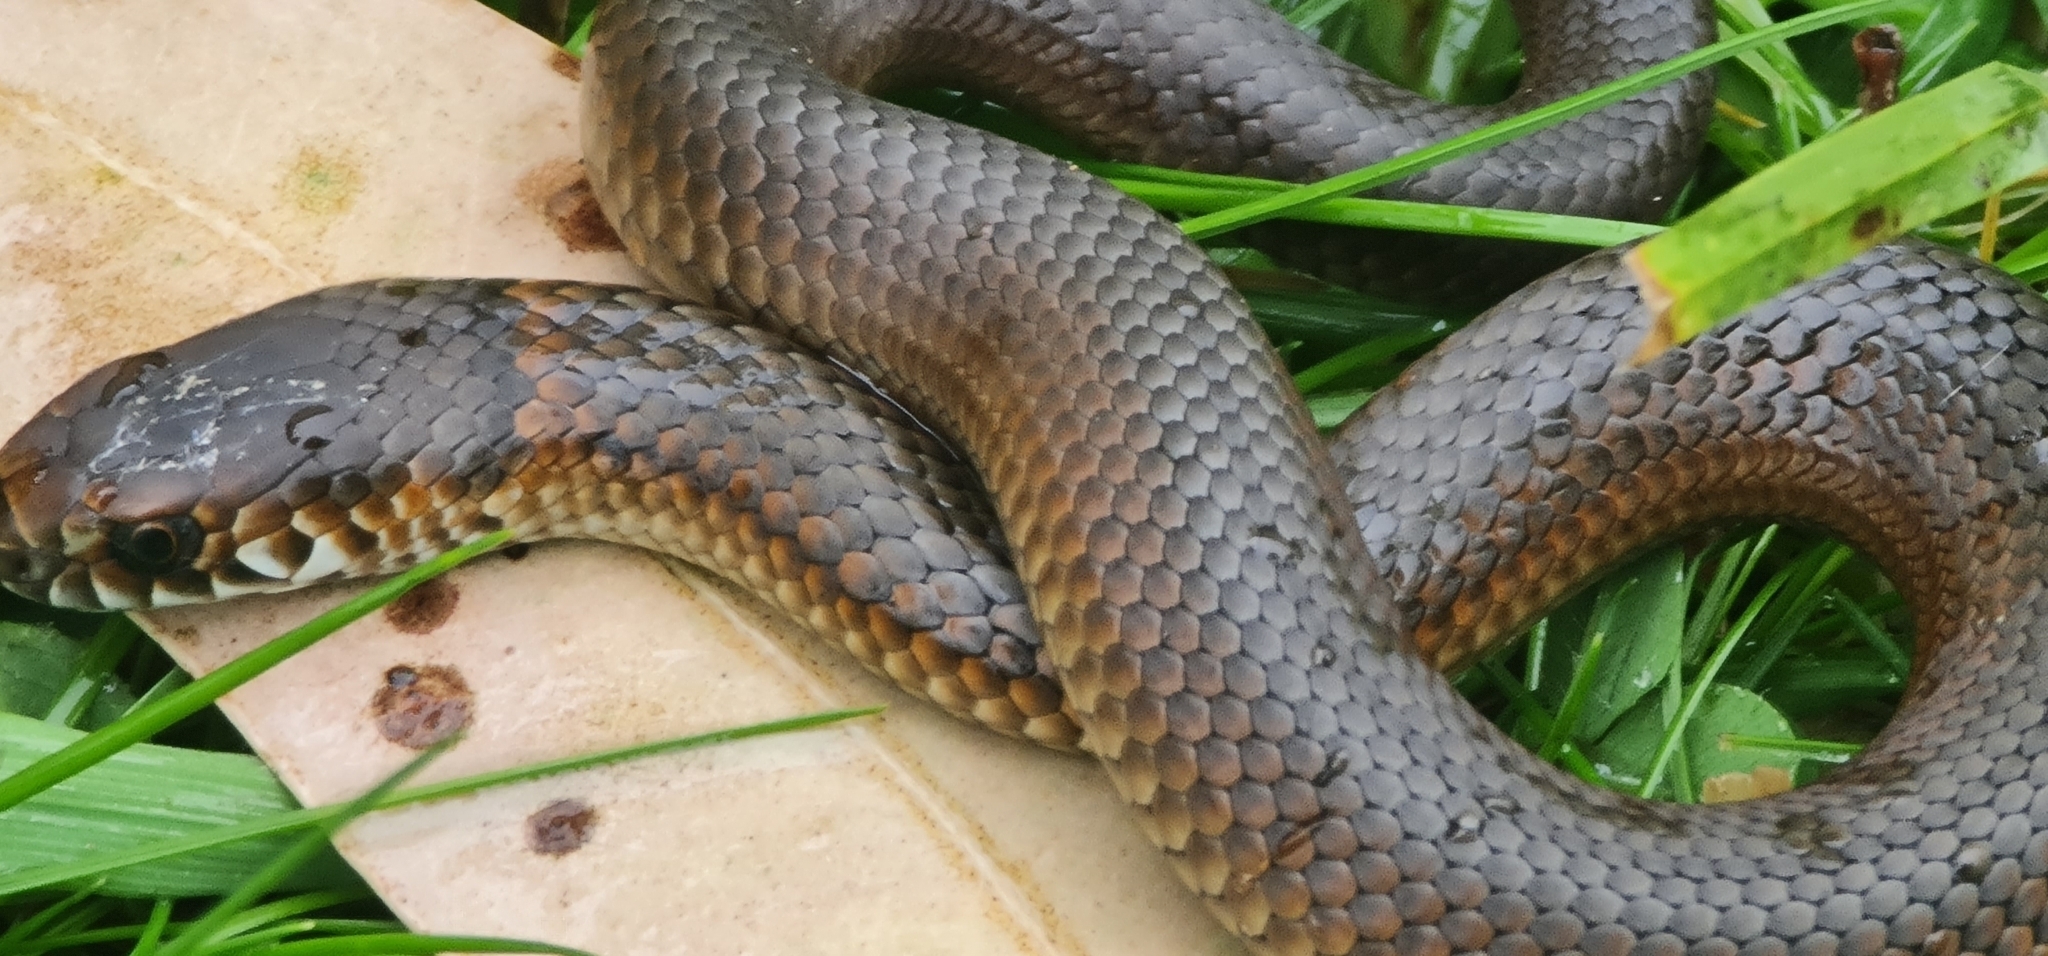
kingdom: Animalia
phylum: Chordata
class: Squamata
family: Elapidae
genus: Austrelaps
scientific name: Austrelaps superbus
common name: Copperhead snake
